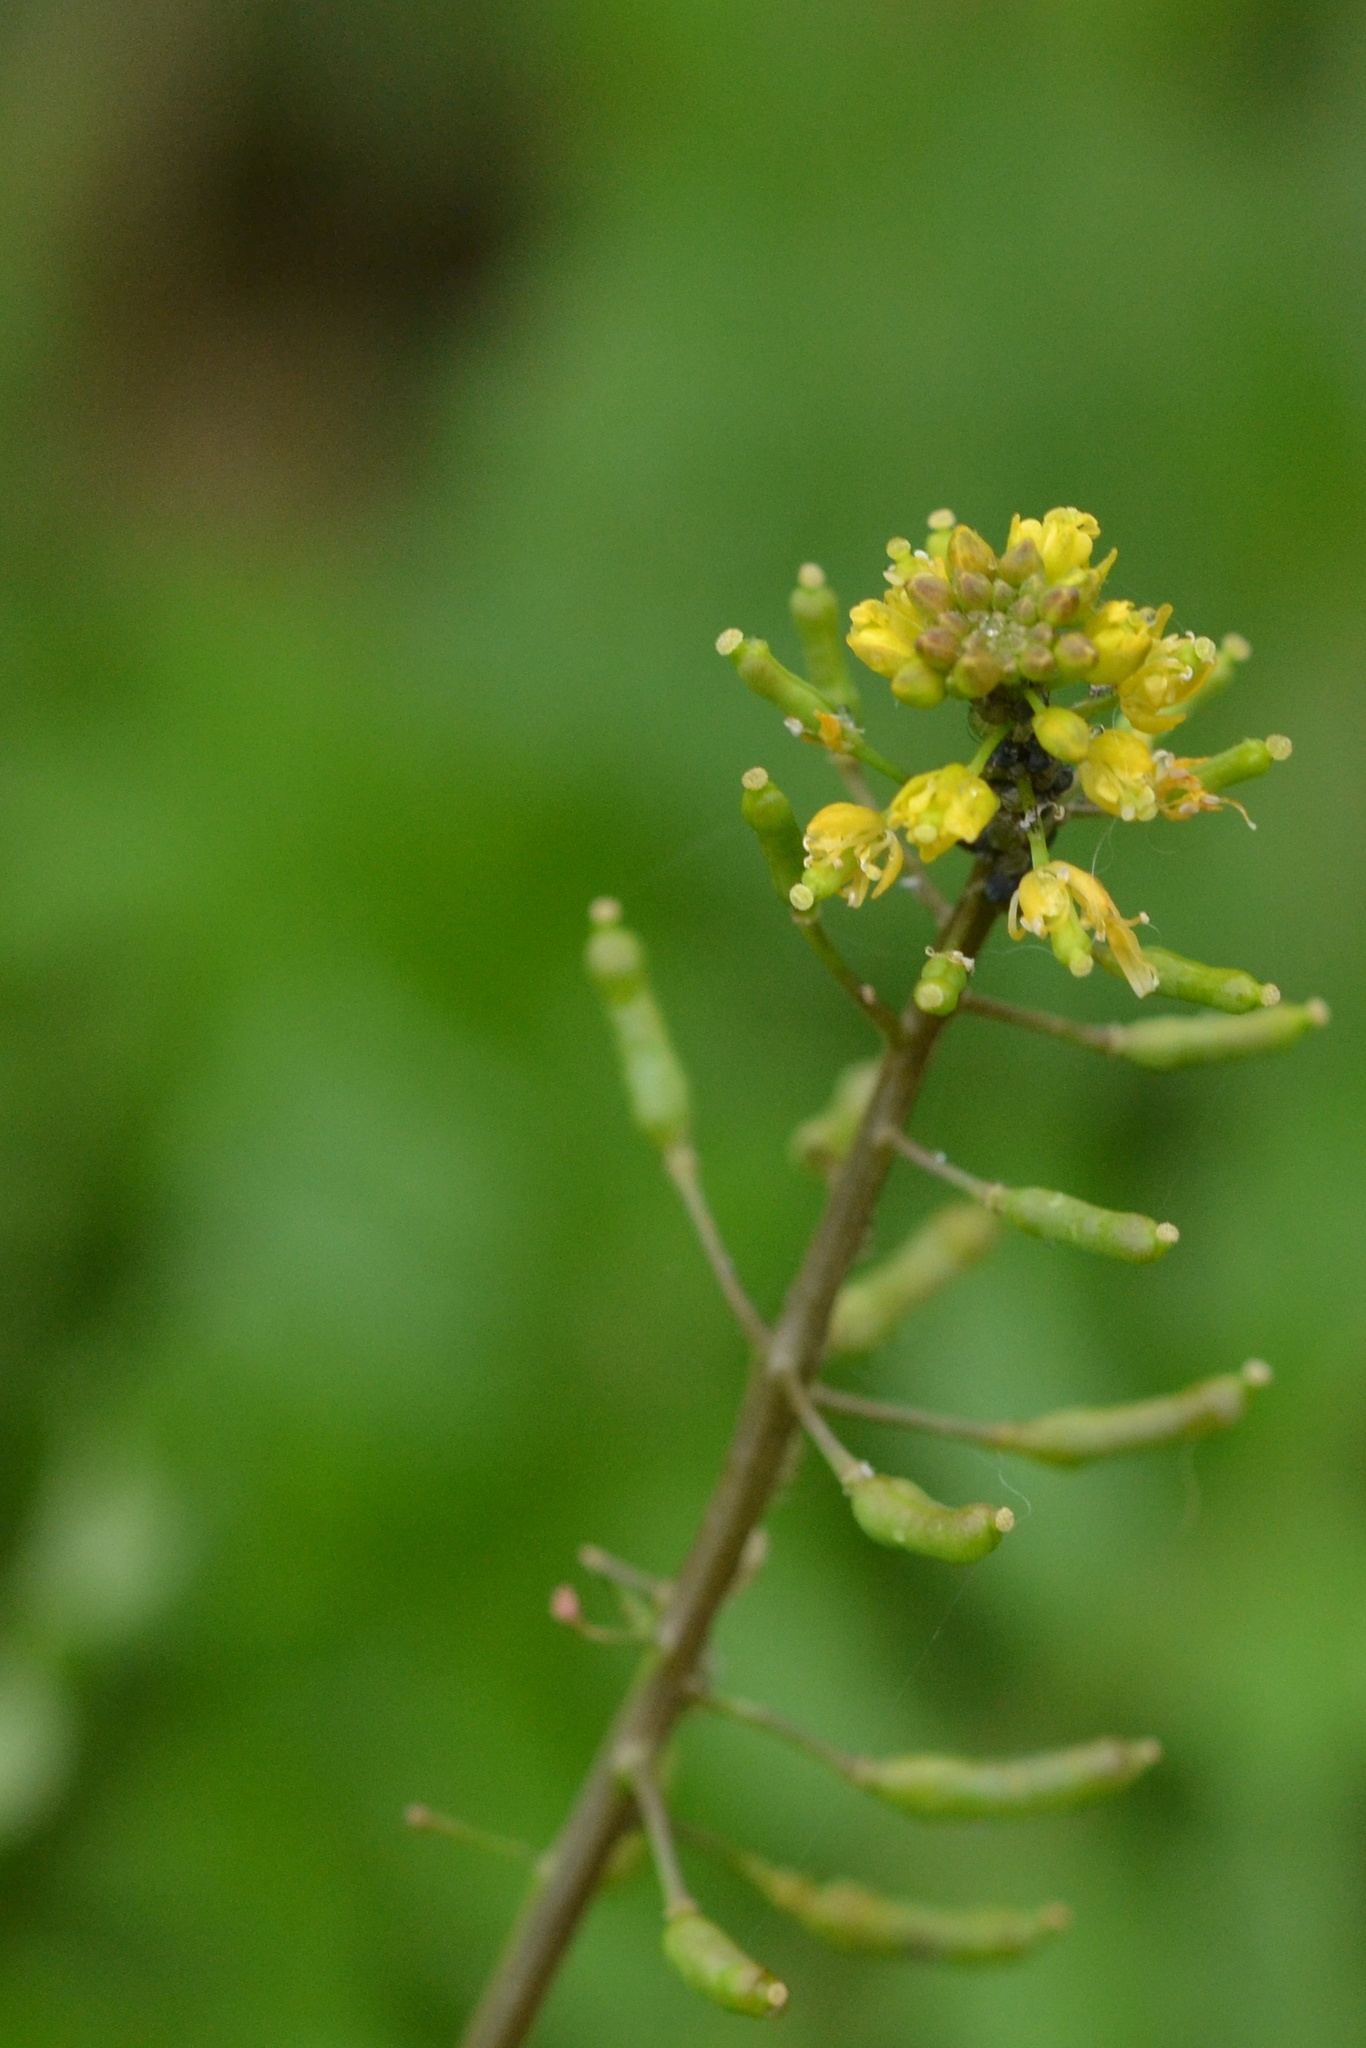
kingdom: Plantae
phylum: Tracheophyta
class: Magnoliopsida
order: Brassicales
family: Brassicaceae
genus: Rorippa
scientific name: Rorippa palustris
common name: Marsh yellow-cress
